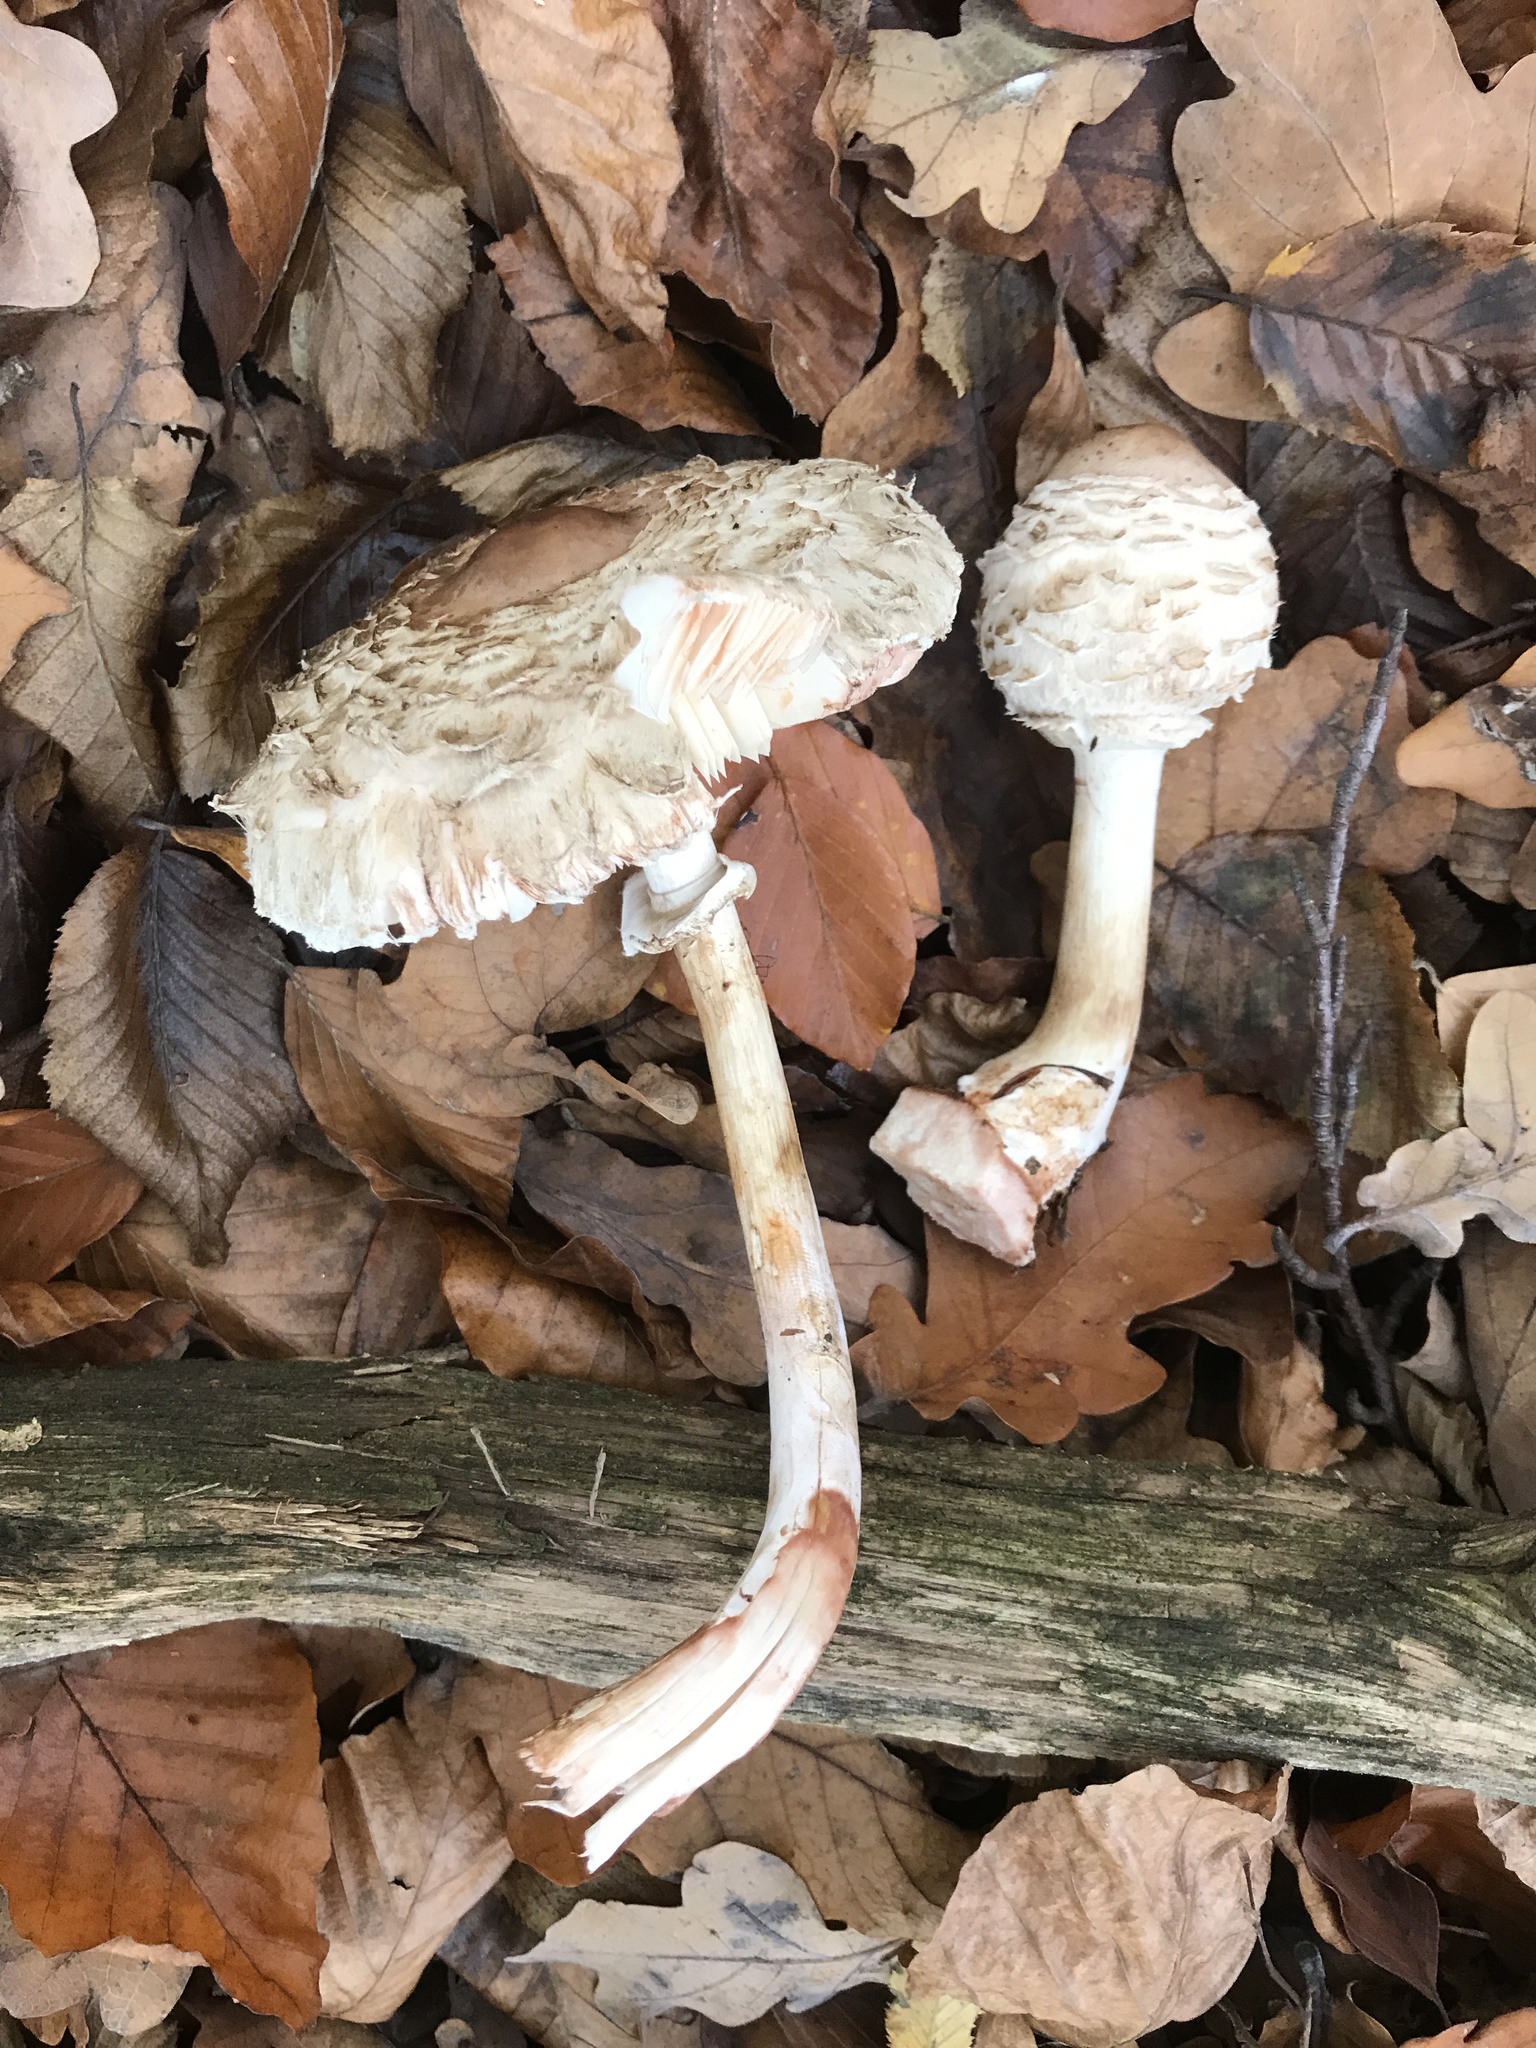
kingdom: Fungi
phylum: Basidiomycota
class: Agaricomycetes
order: Agaricales
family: Agaricaceae
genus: Chlorophyllum
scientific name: Chlorophyllum rhacodes
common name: Shaggy parasol
